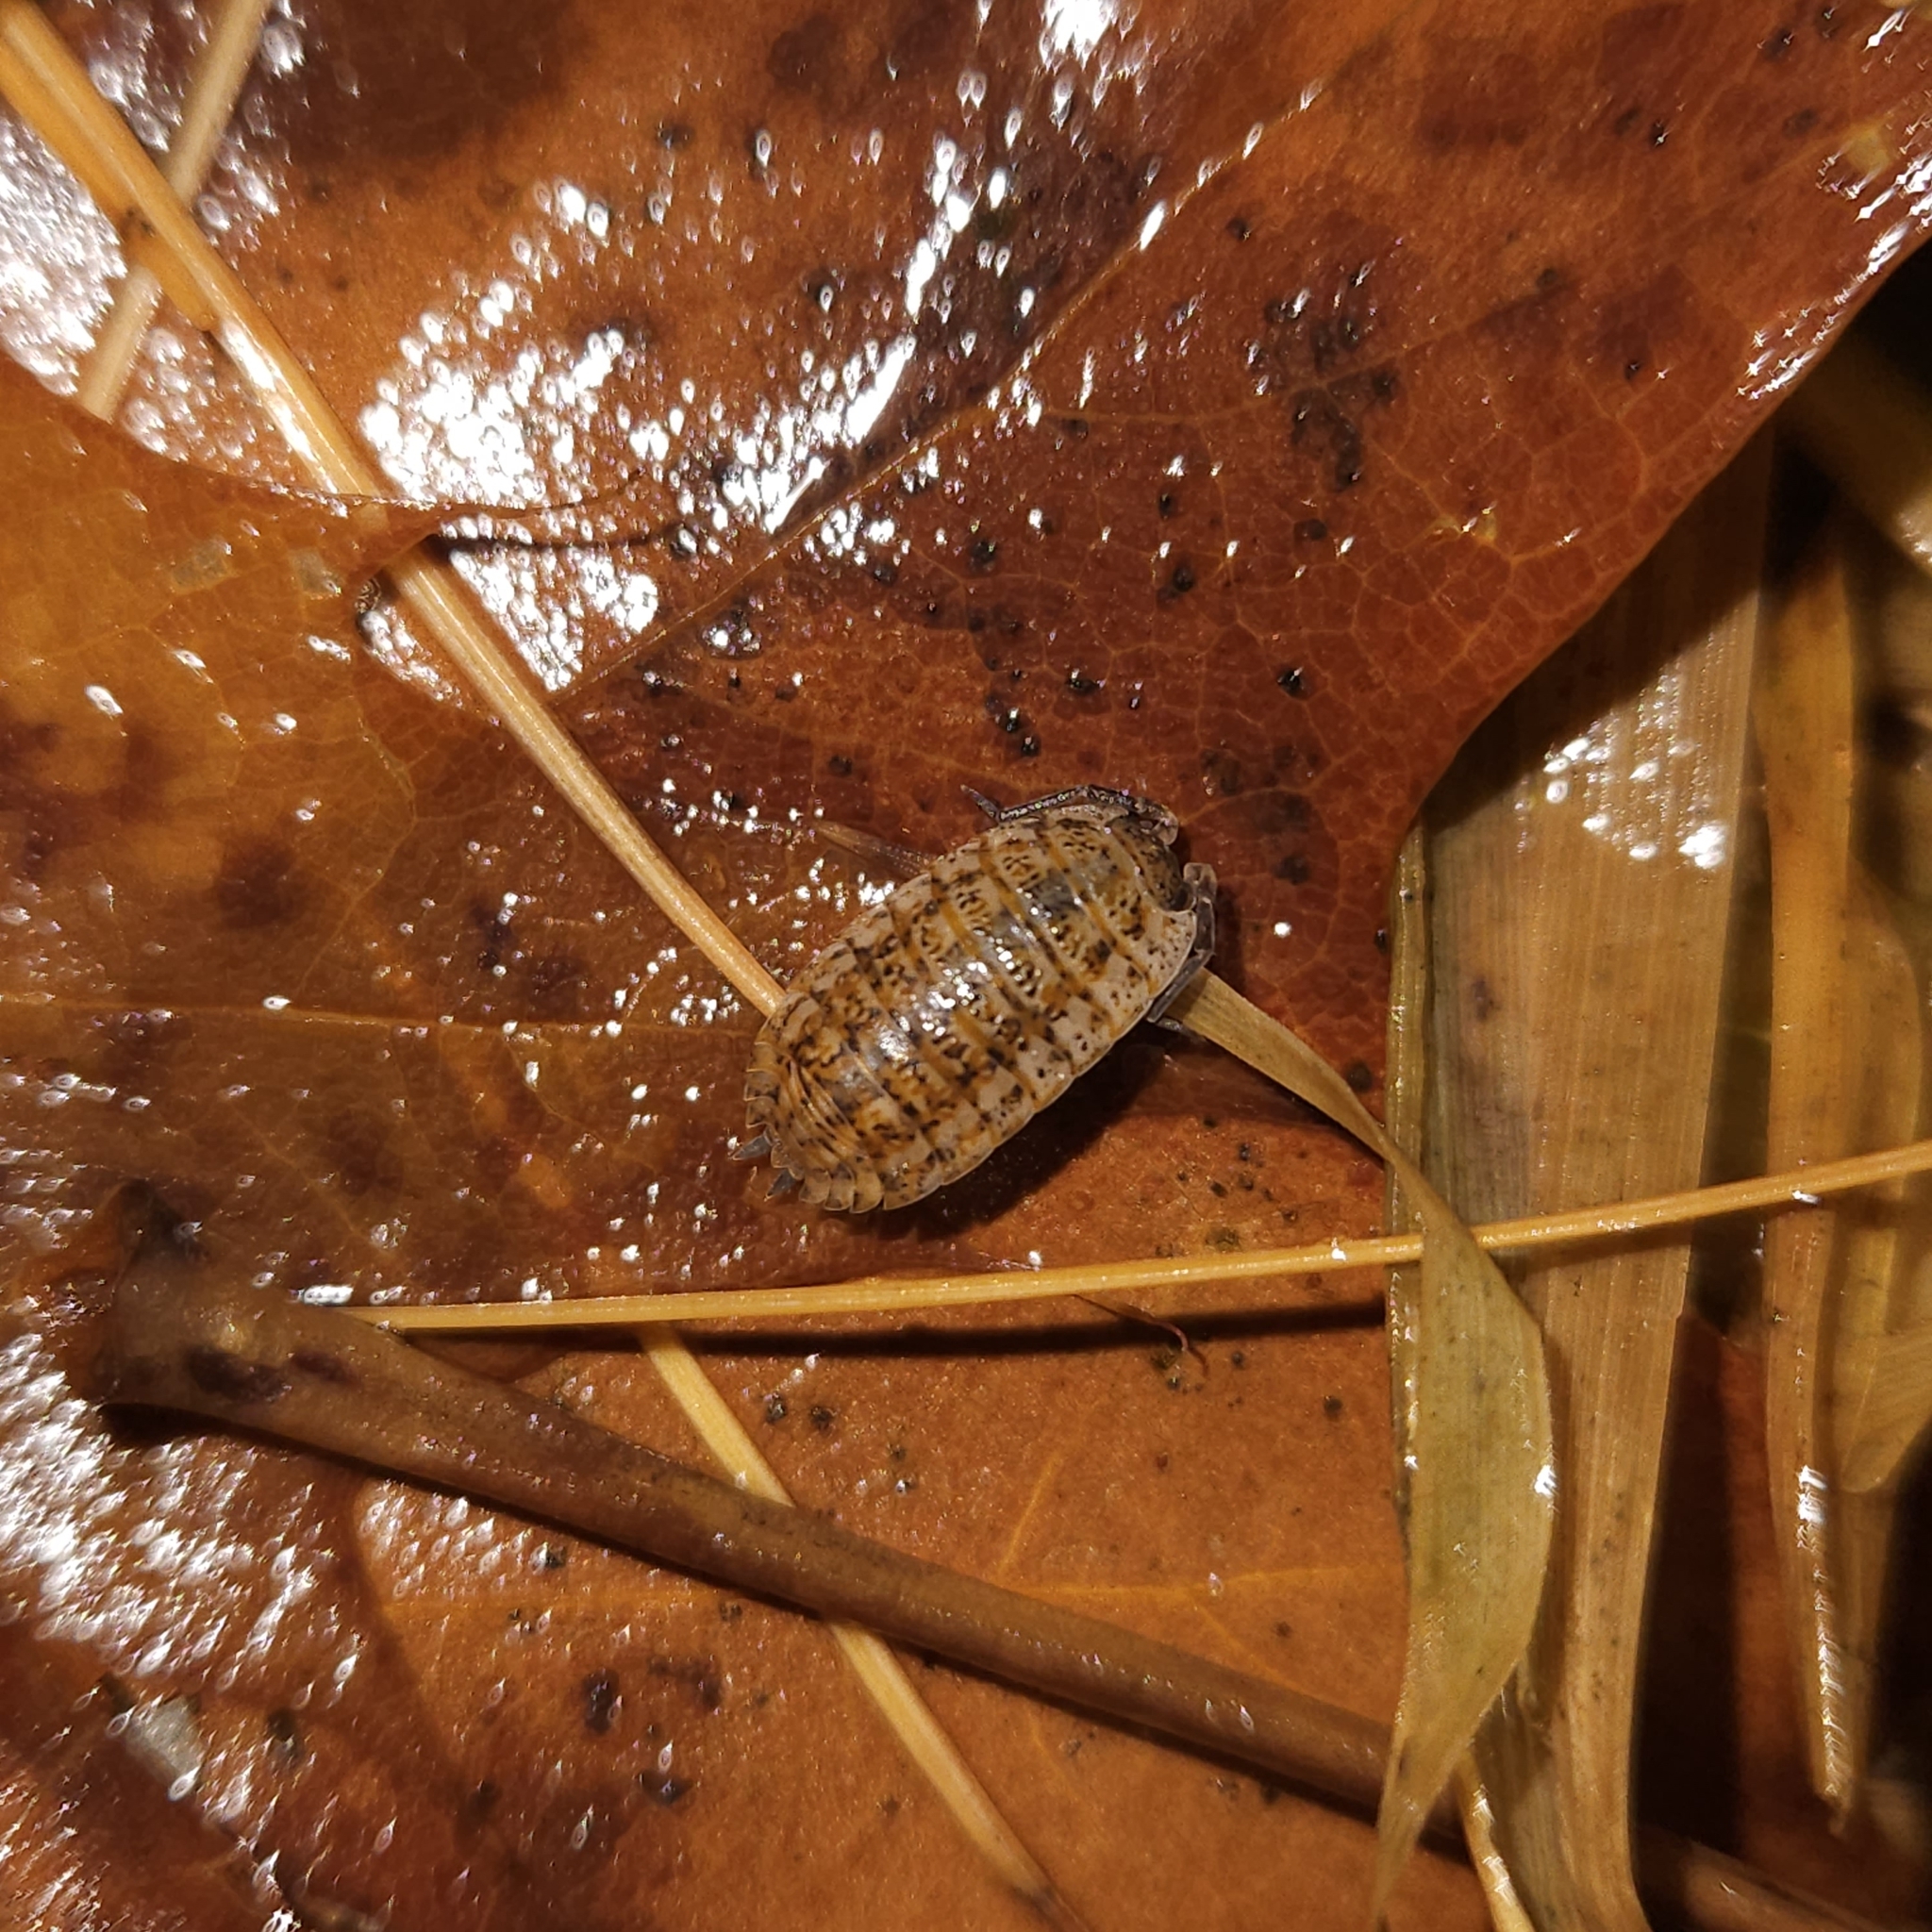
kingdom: Animalia
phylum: Arthropoda
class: Malacostraca
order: Isopoda
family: Trachelipodidae
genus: Trachelipus
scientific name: Trachelipus rathkii
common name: Isopod
